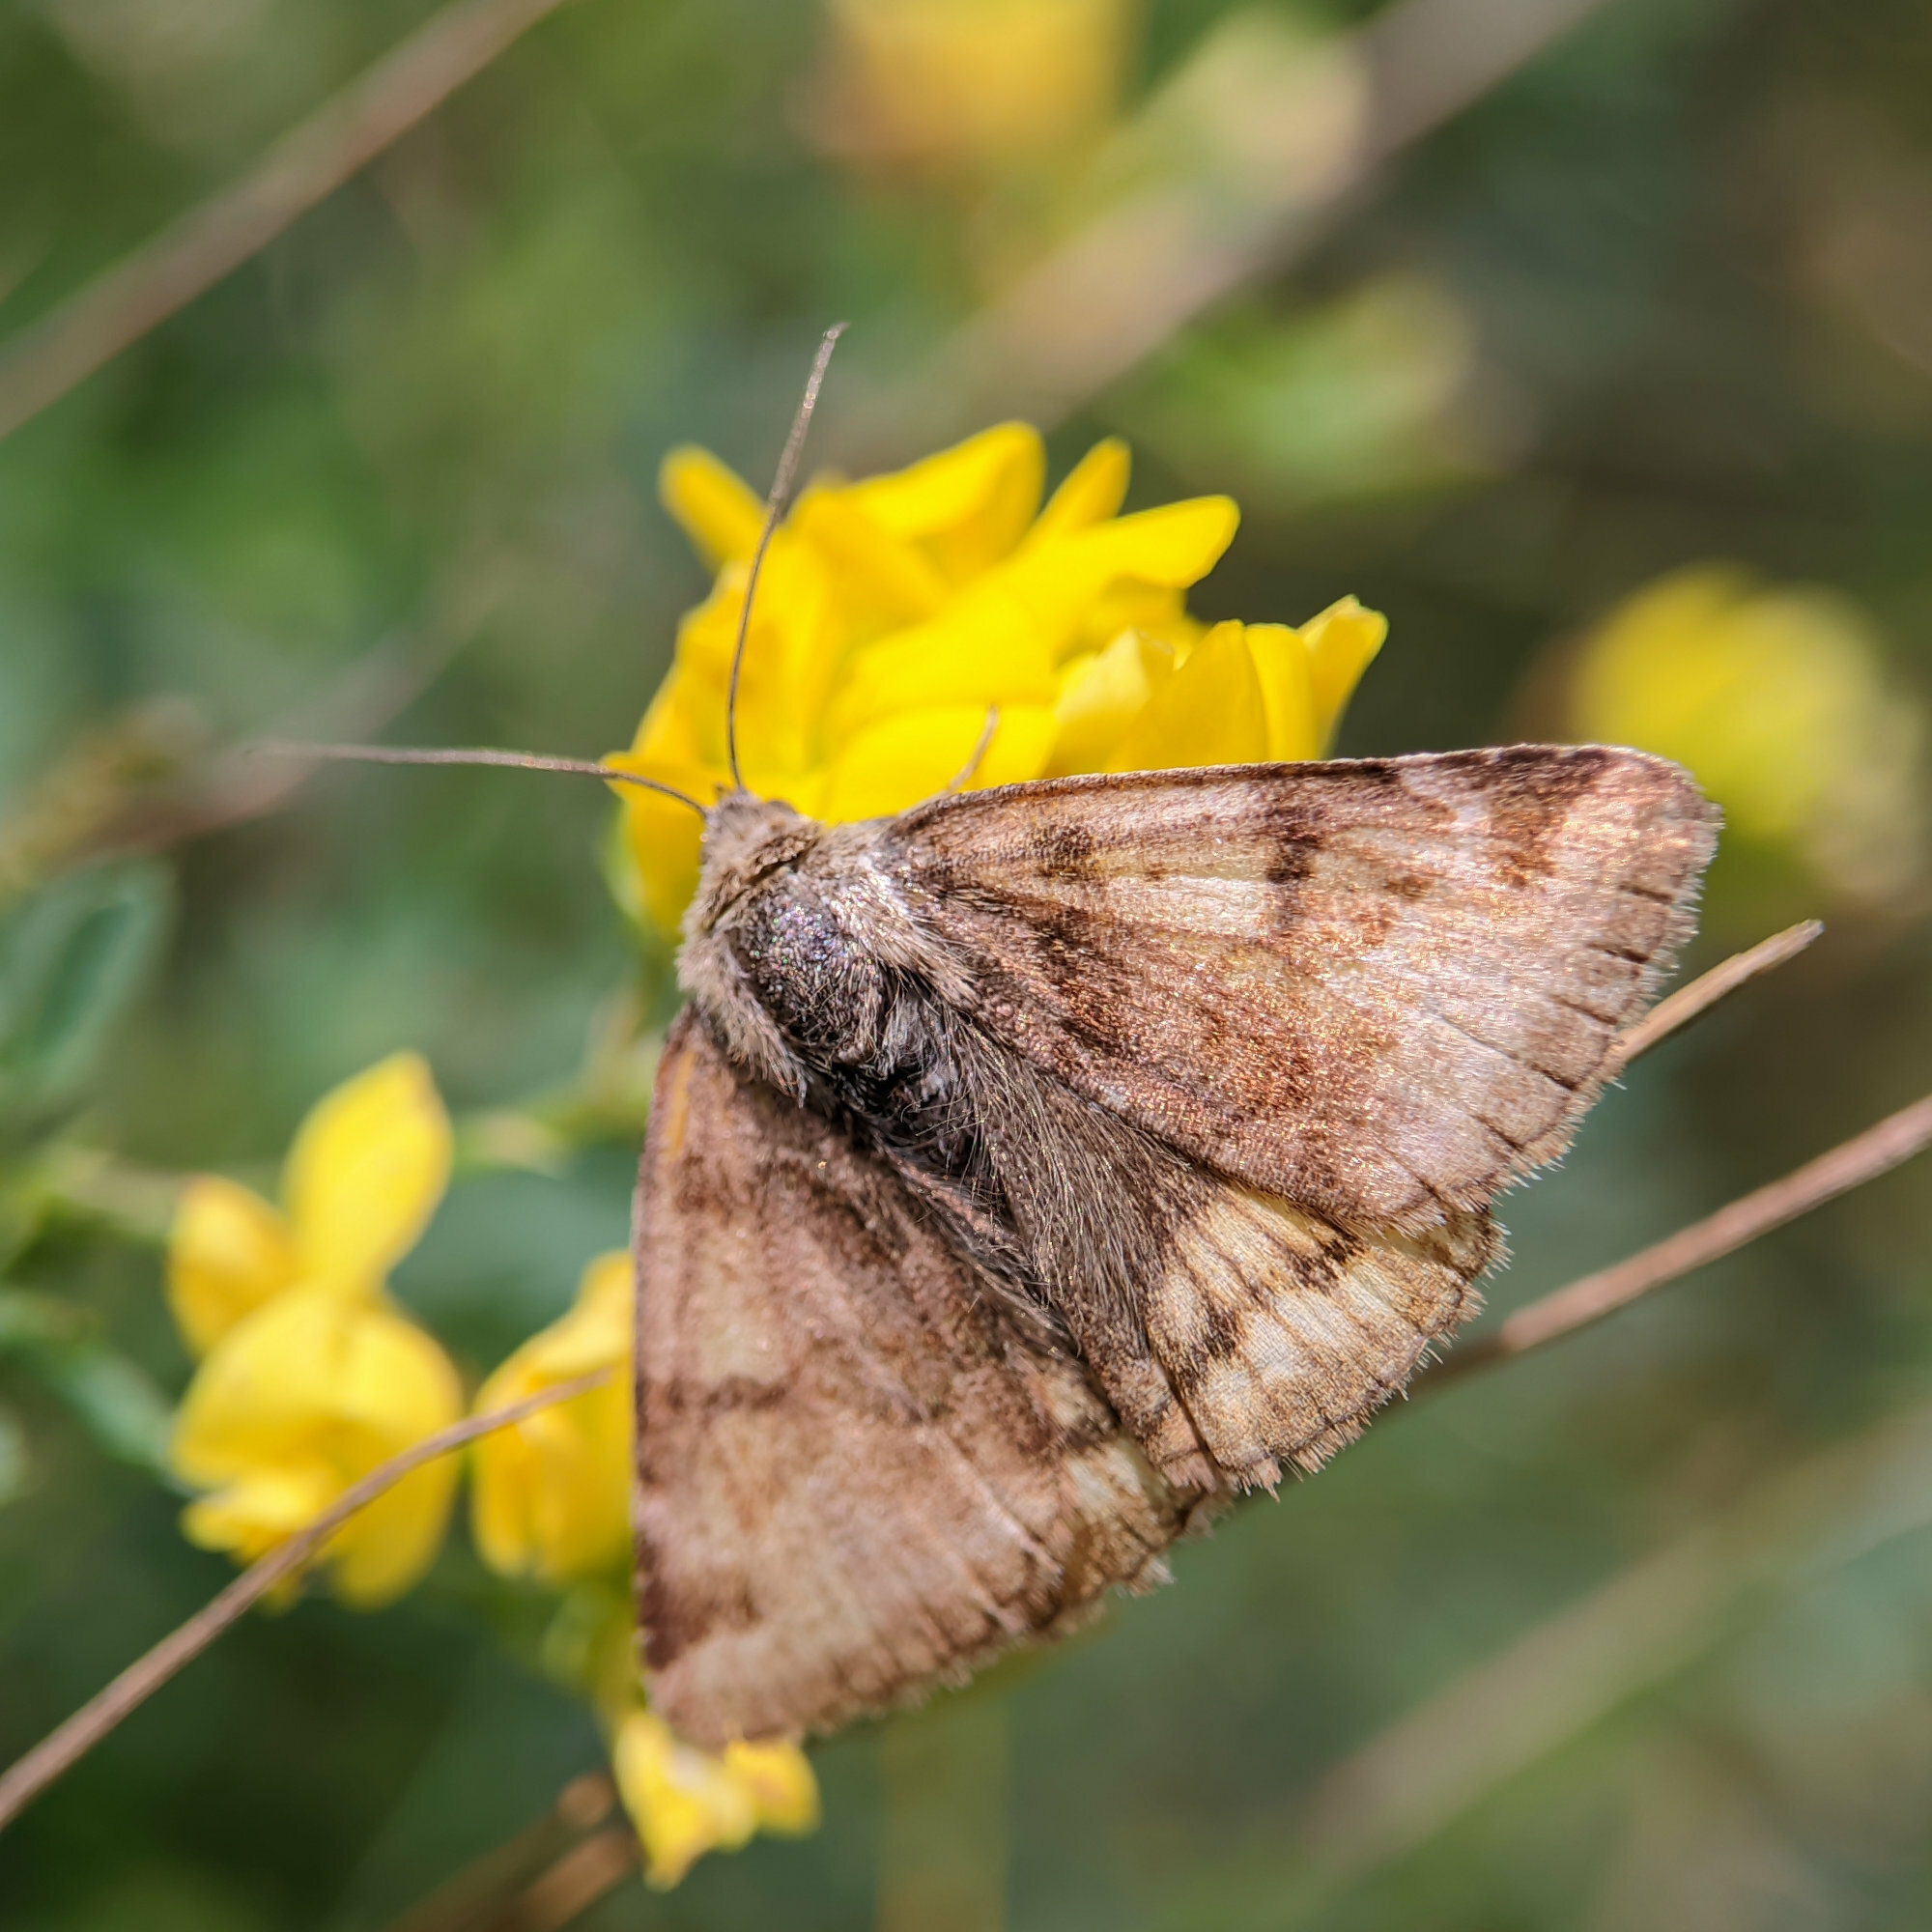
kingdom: Animalia
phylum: Arthropoda
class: Insecta
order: Lepidoptera
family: Erebidae
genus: Euclidia
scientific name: Euclidia glyphica
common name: Burnet companion
